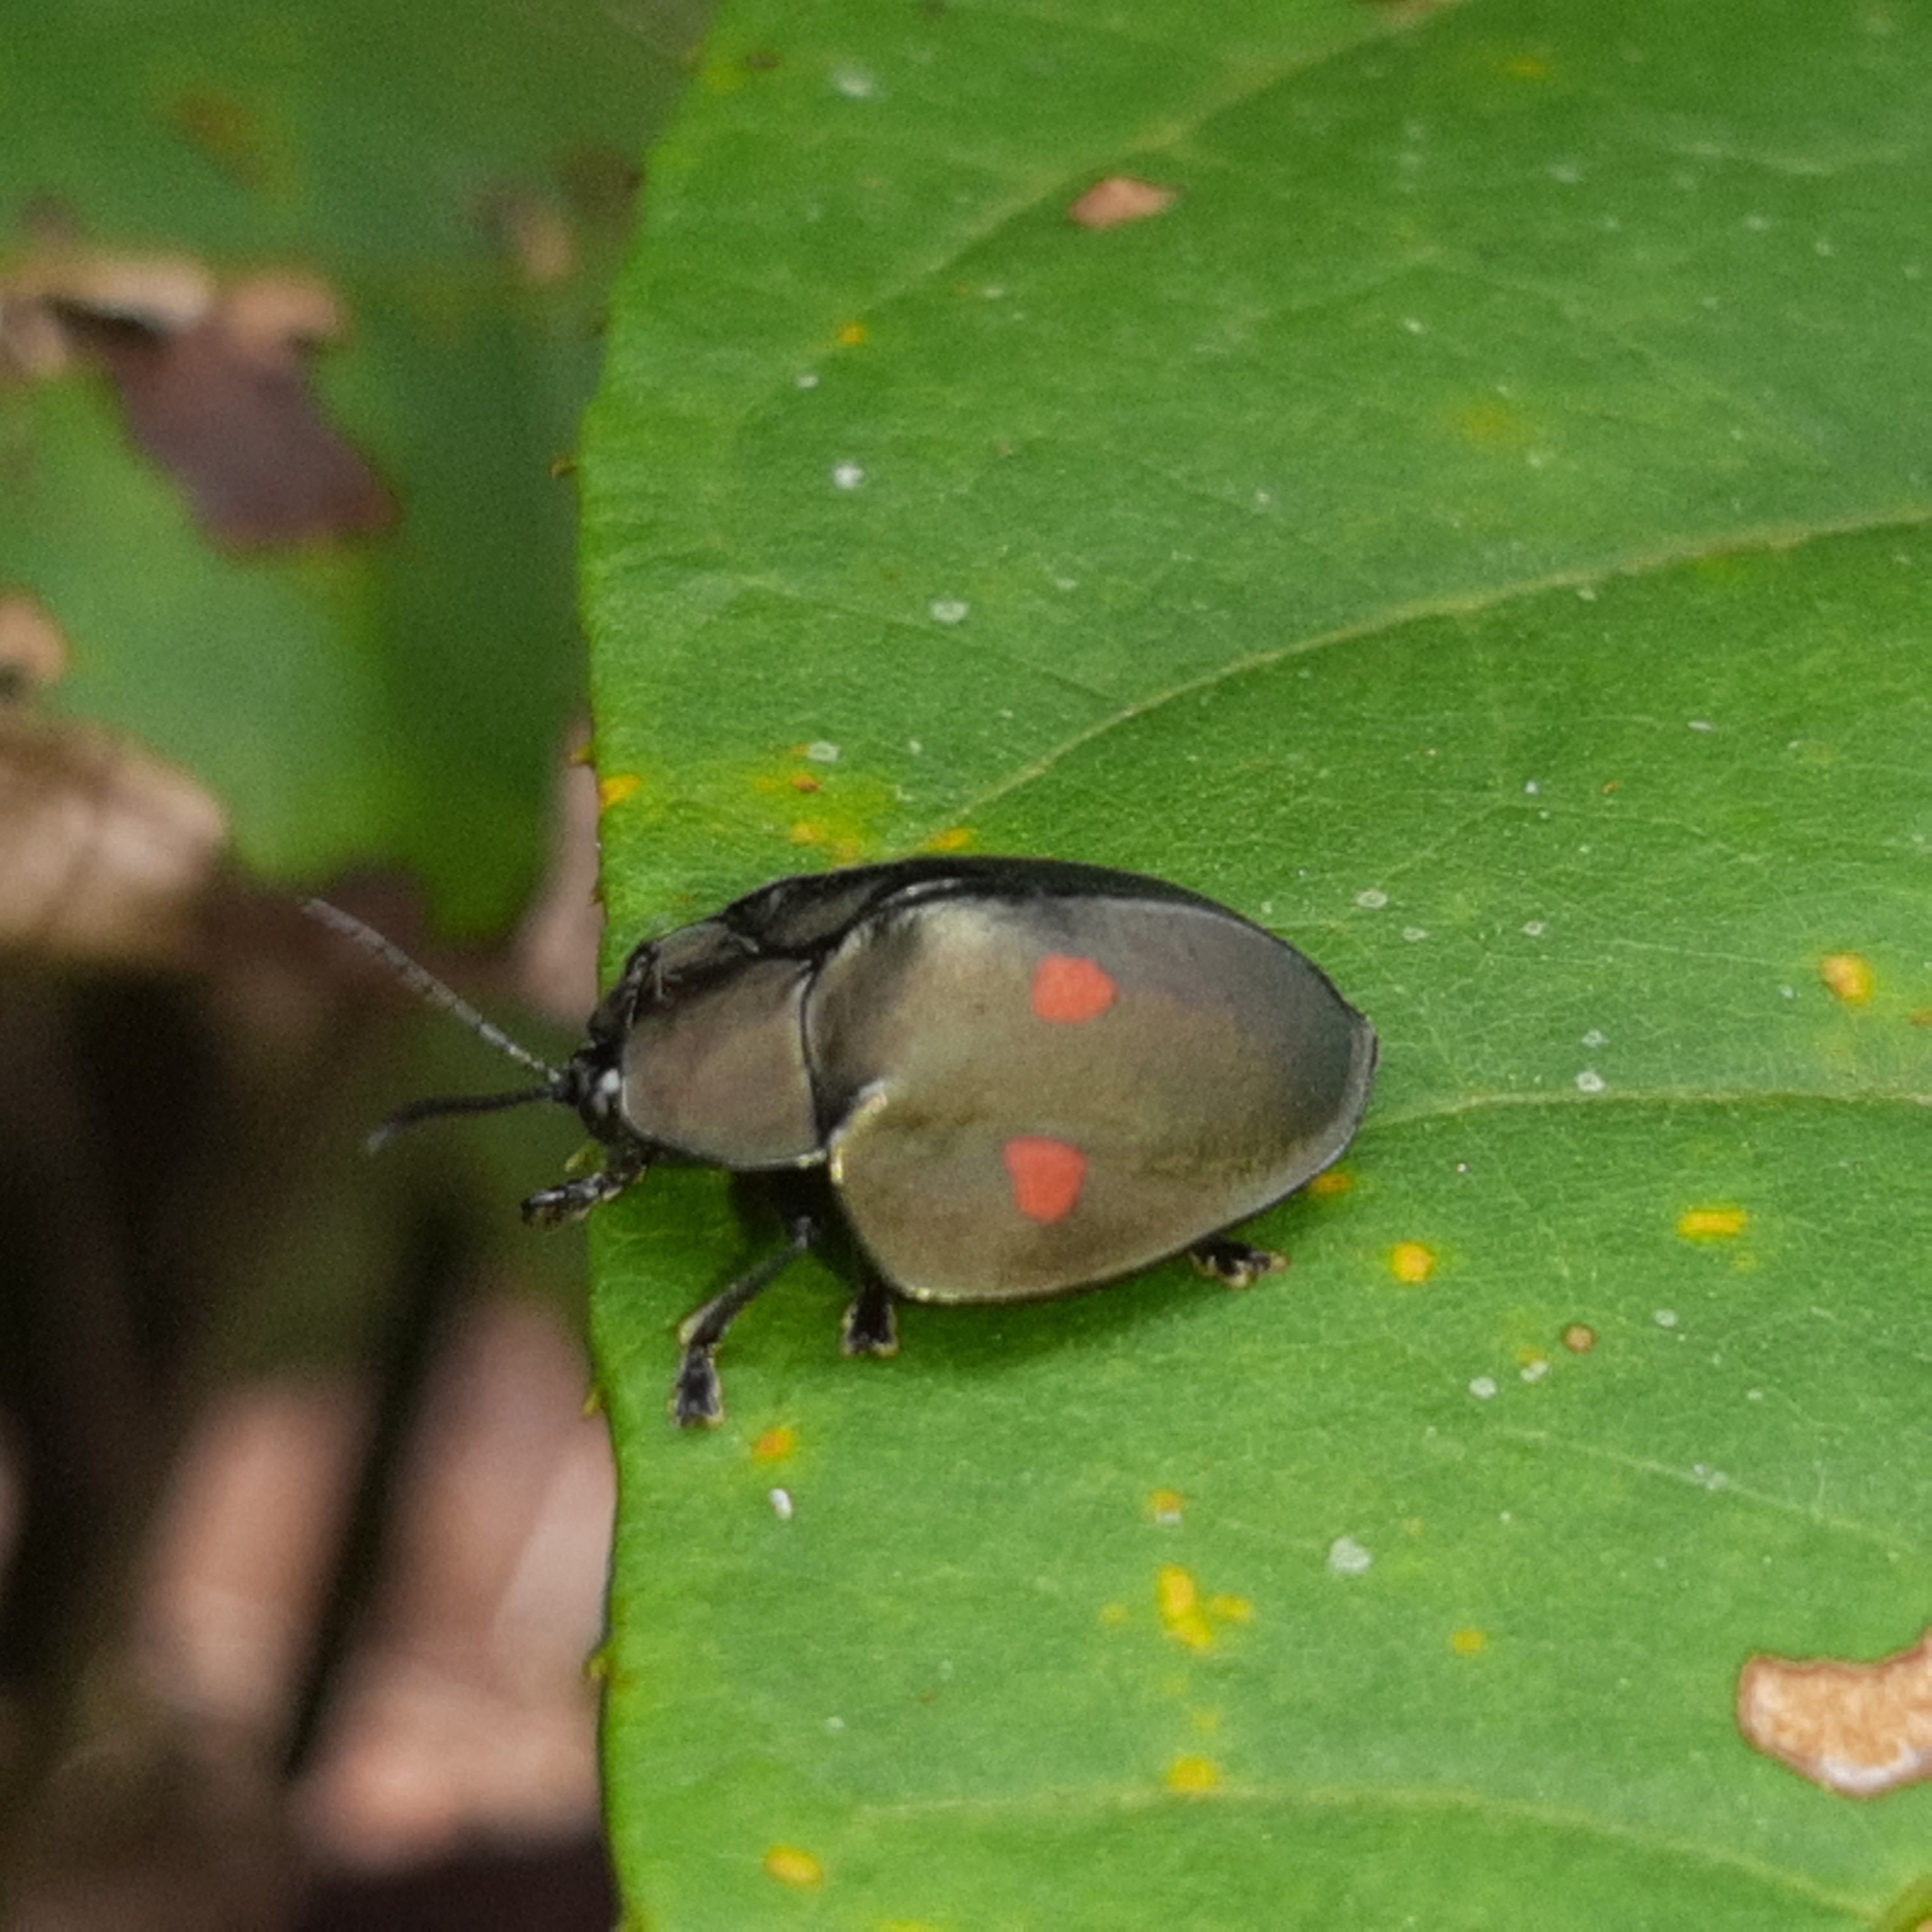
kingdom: Animalia
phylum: Arthropoda
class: Insecta
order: Coleoptera
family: Chrysomelidae
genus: Stolas
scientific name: Stolas lebasii
